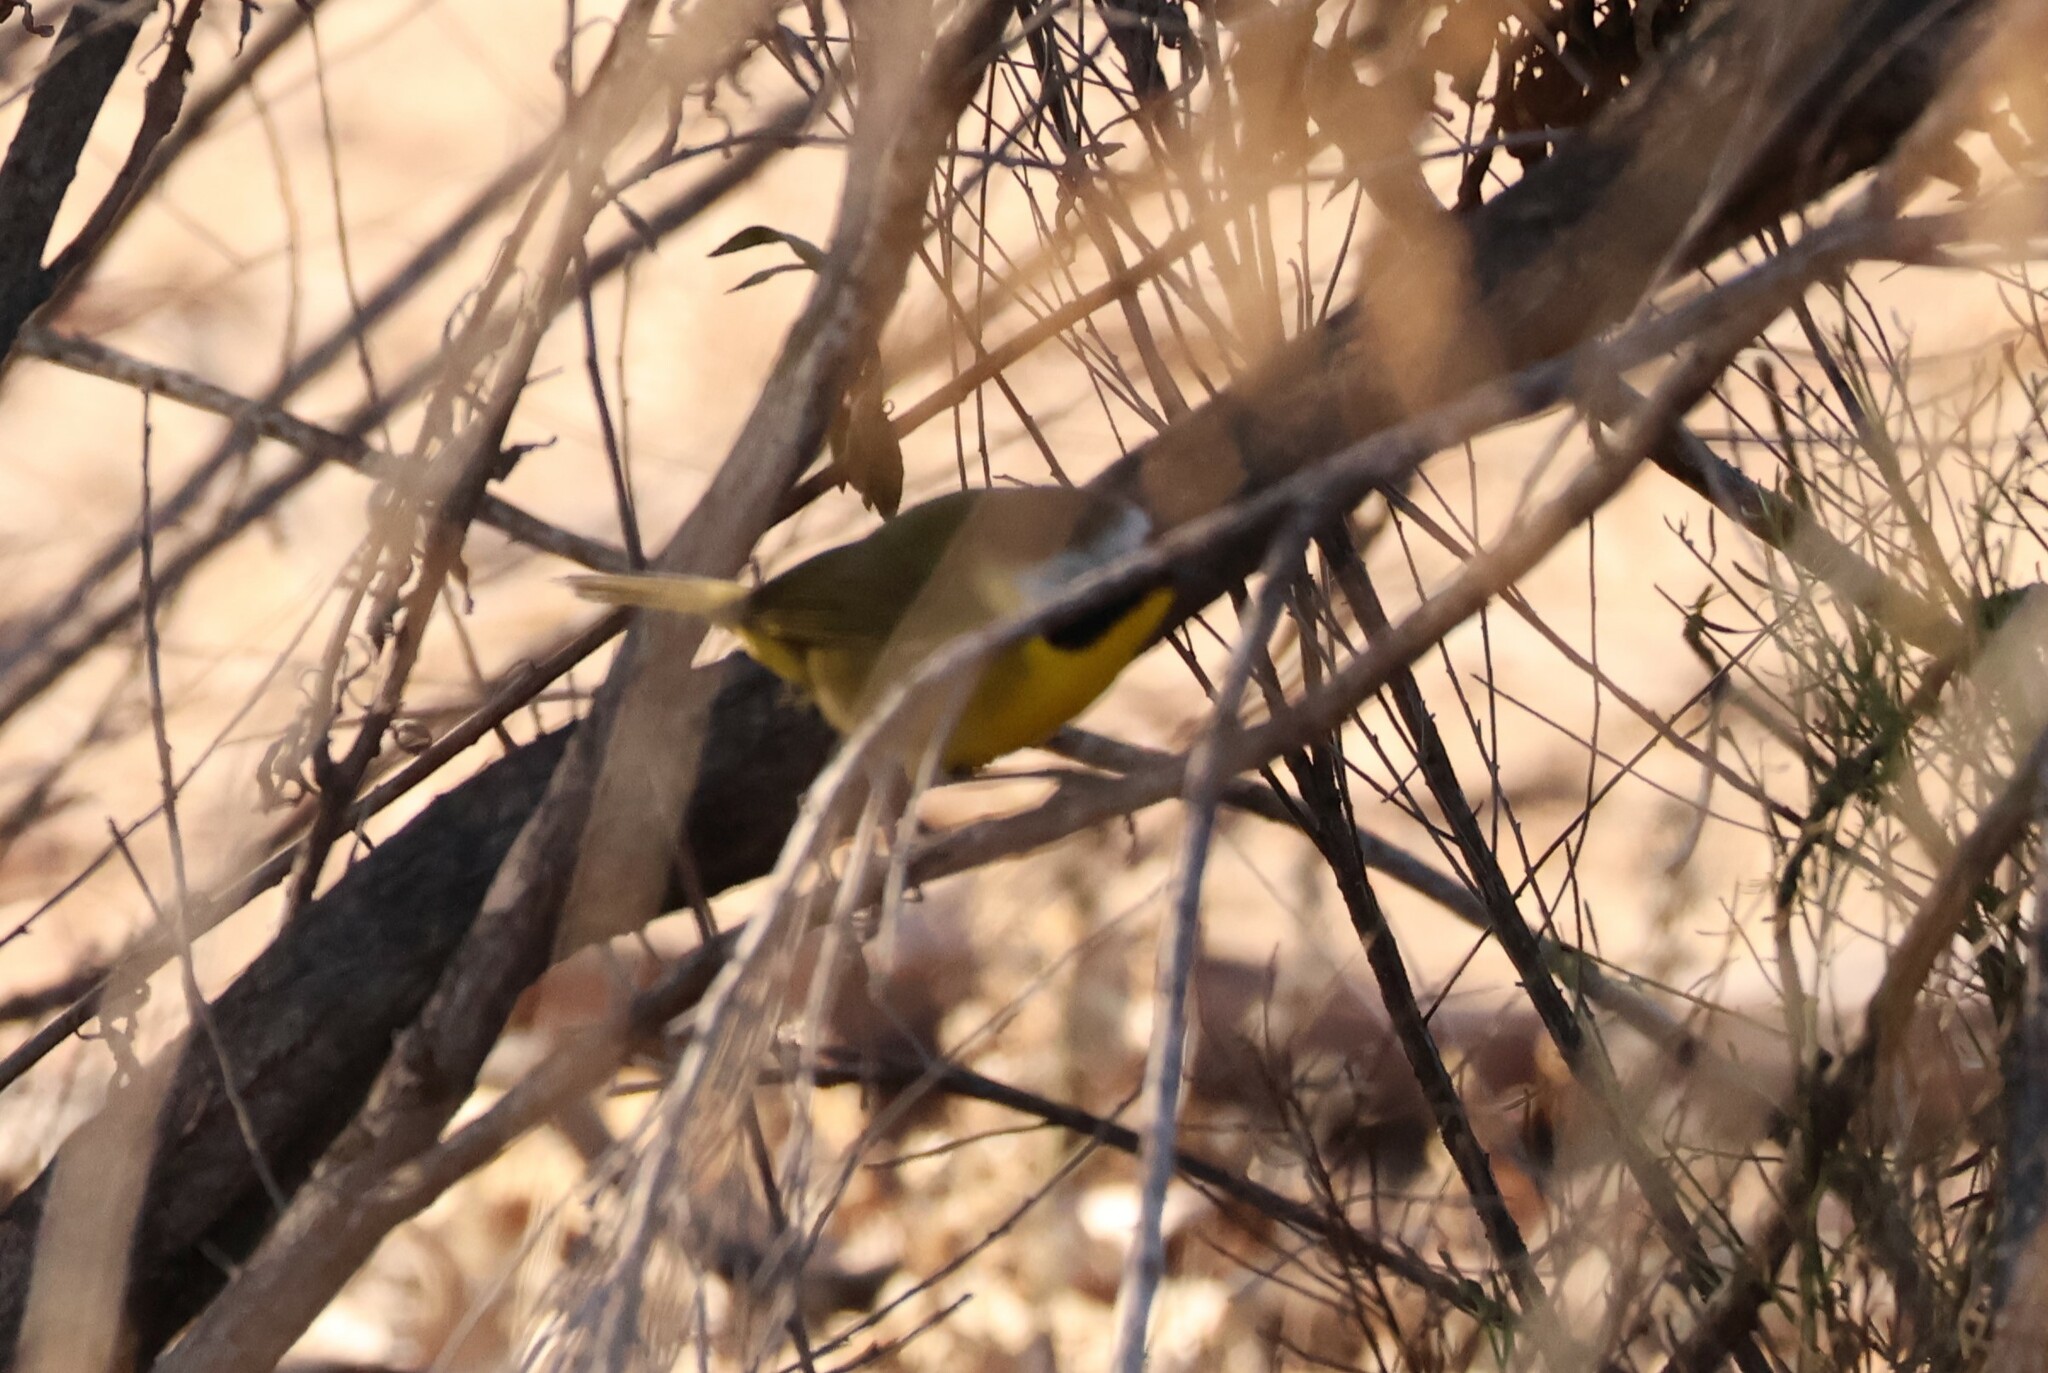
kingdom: Animalia
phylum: Chordata
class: Aves
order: Passeriformes
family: Parulidae
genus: Geothlypis
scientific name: Geothlypis trichas
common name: Common yellowthroat
